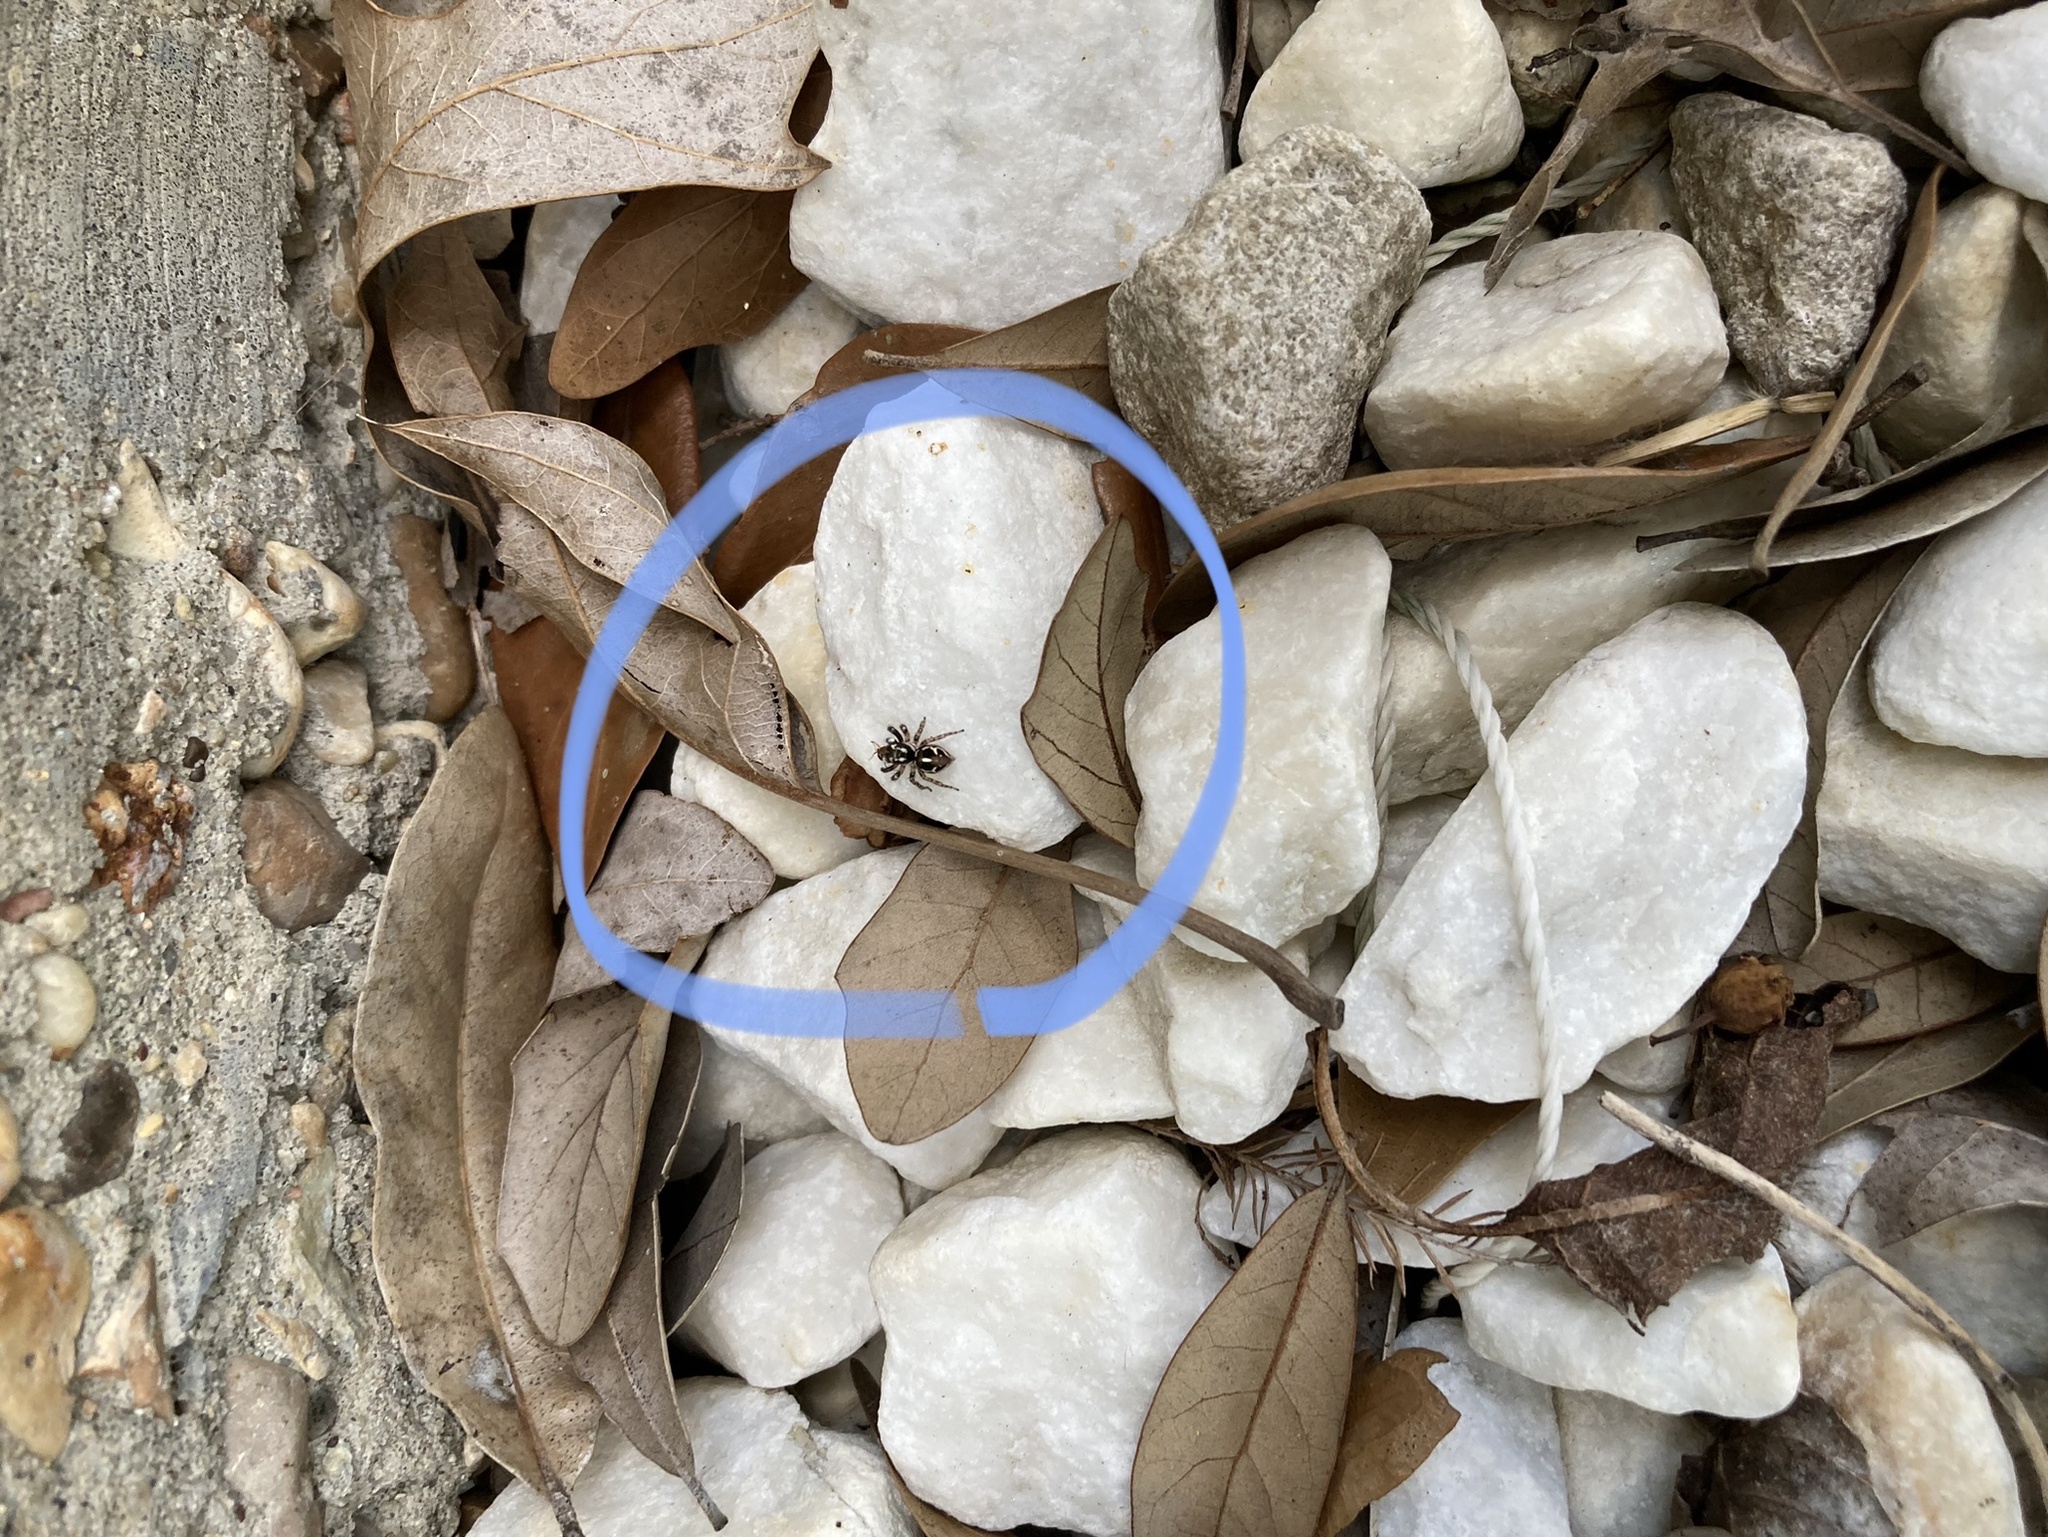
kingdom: Animalia
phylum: Arthropoda
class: Arachnida
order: Araneae
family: Salticidae
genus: Anasaitis
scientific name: Anasaitis canosa
